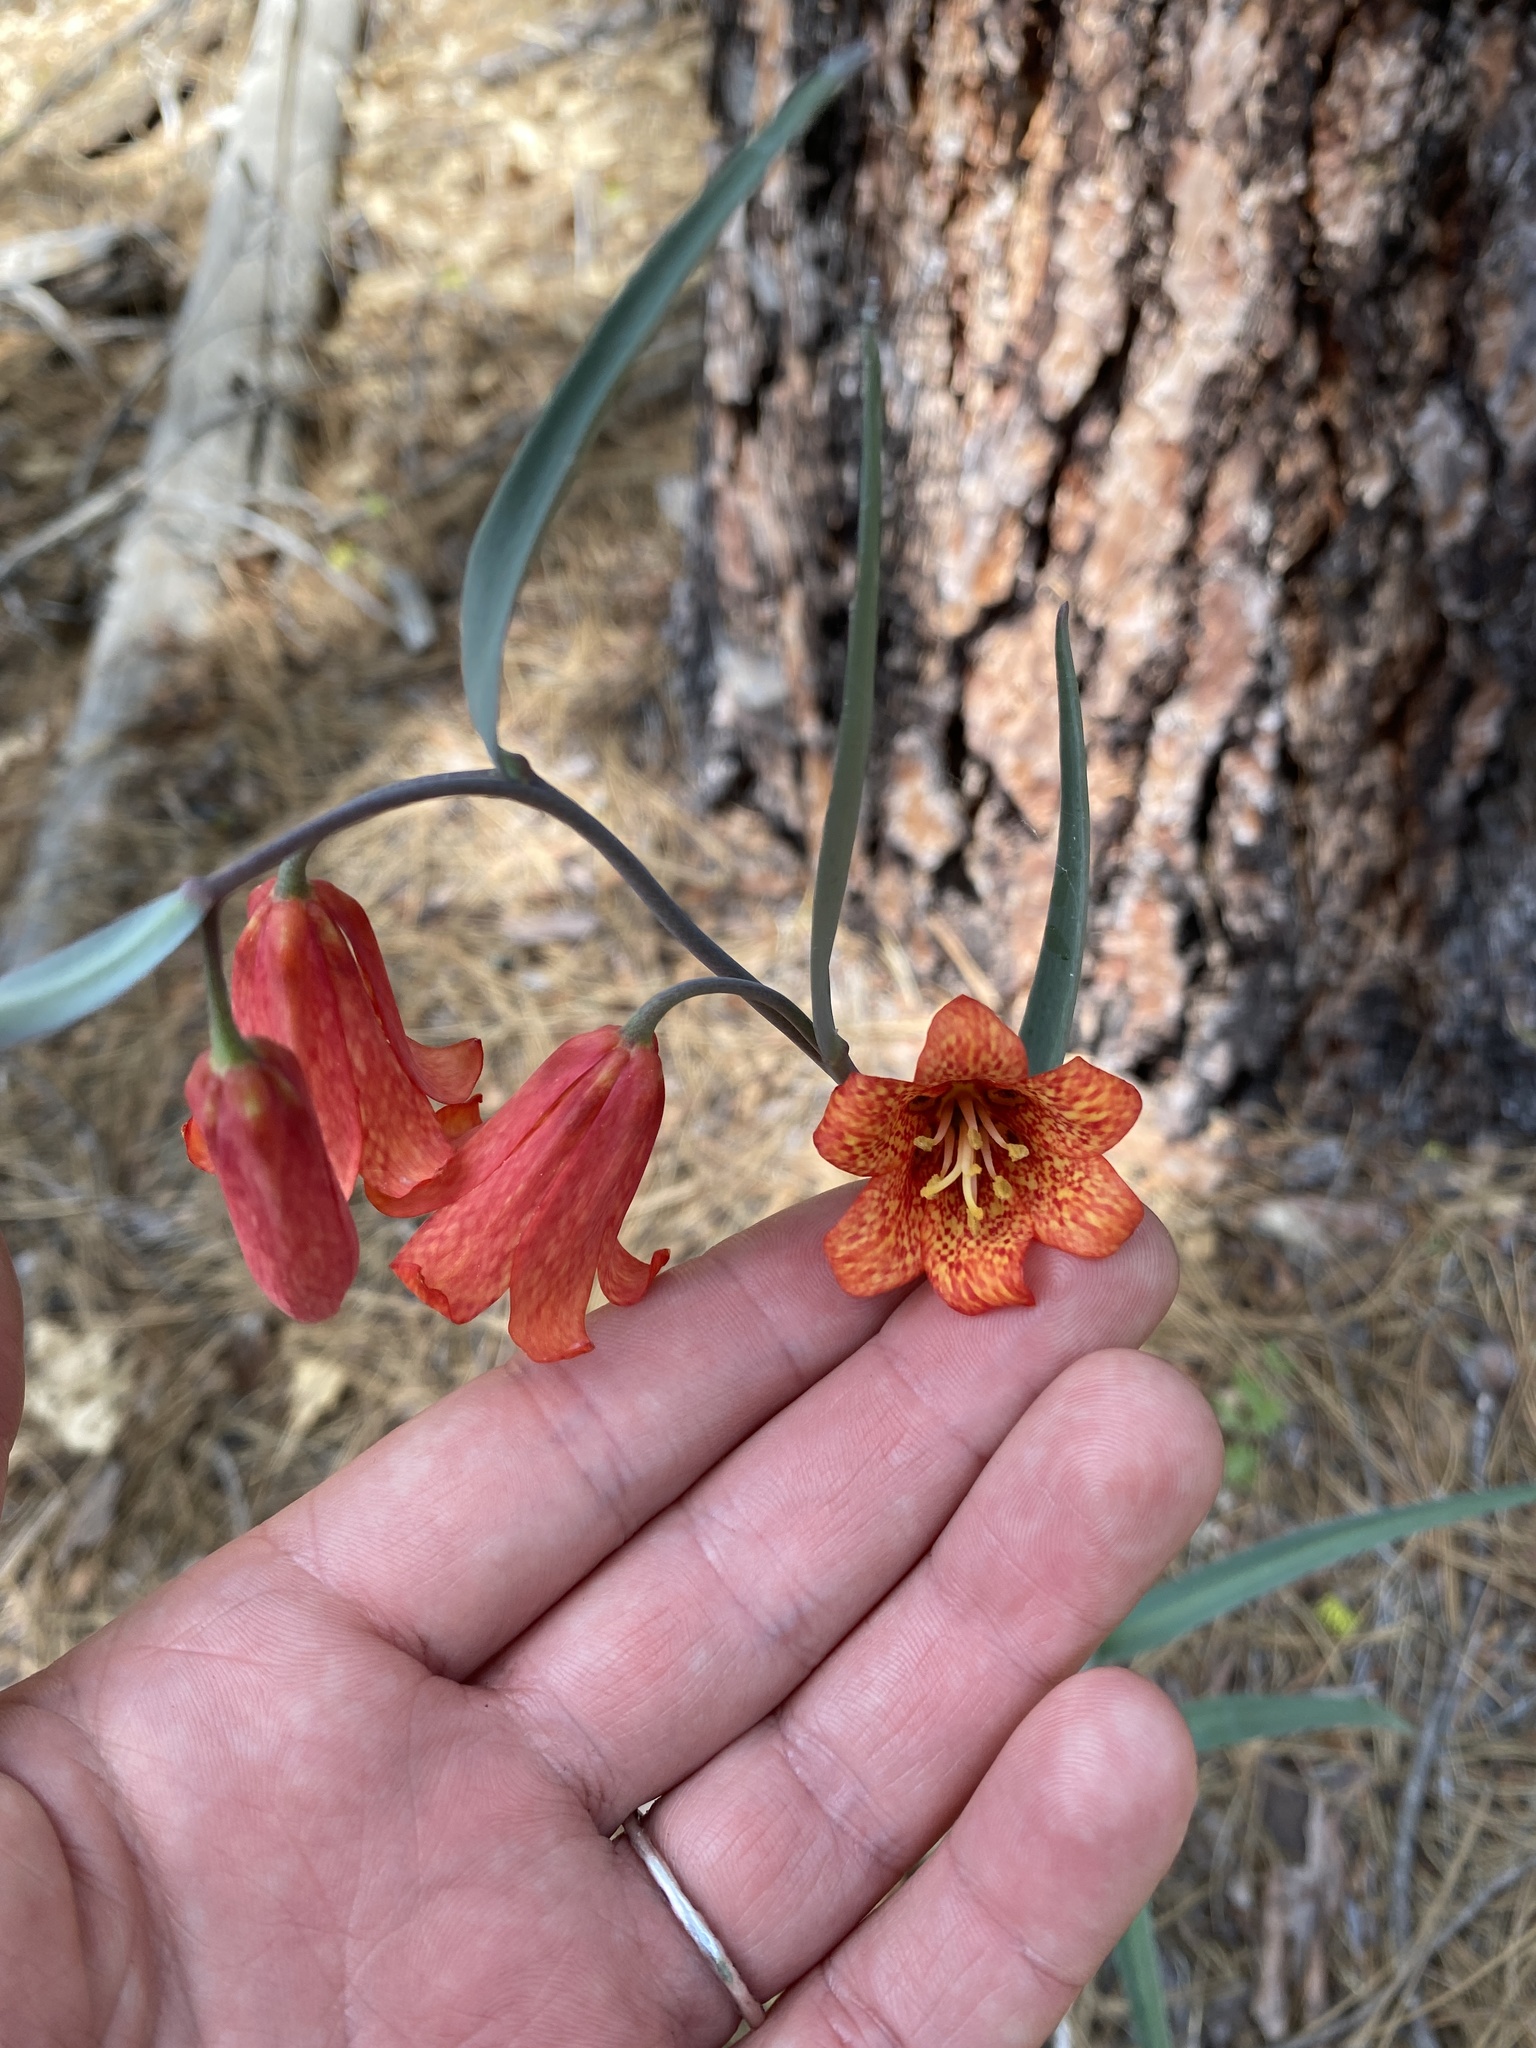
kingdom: Plantae
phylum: Tracheophyta
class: Liliopsida
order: Liliales
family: Liliaceae
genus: Fritillaria
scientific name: Fritillaria recurva
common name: Scarlet fritillary
